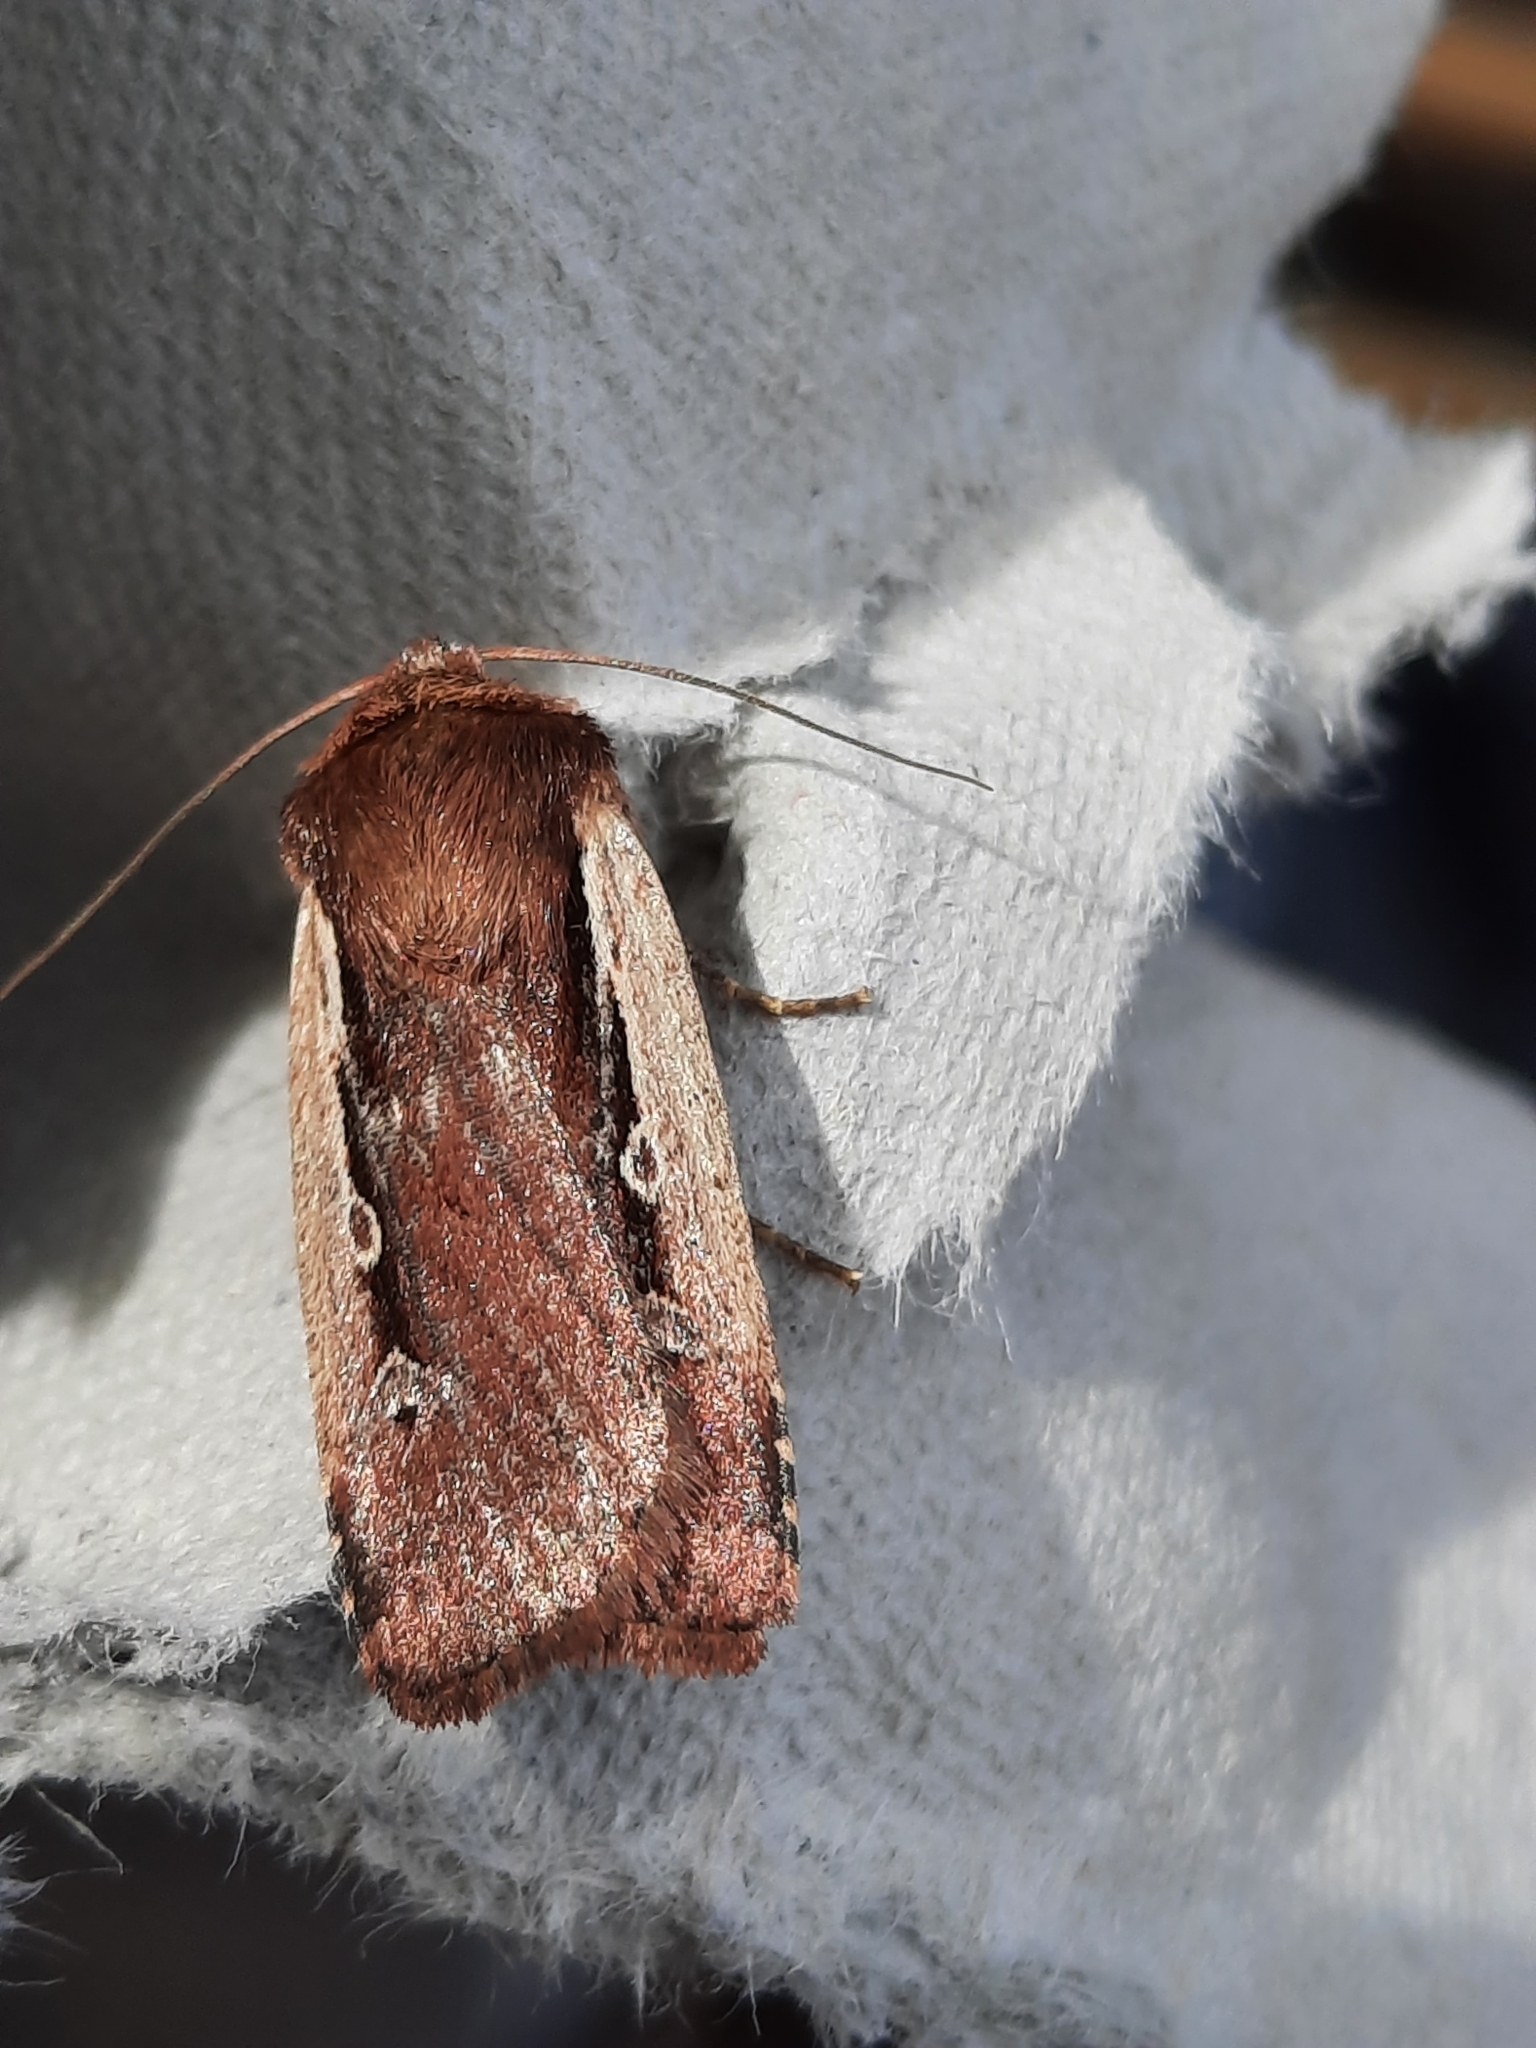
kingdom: Animalia
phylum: Arthropoda
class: Insecta
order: Lepidoptera
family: Noctuidae
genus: Ochropleura
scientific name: Ochropleura plecta
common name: Flame shoulder
